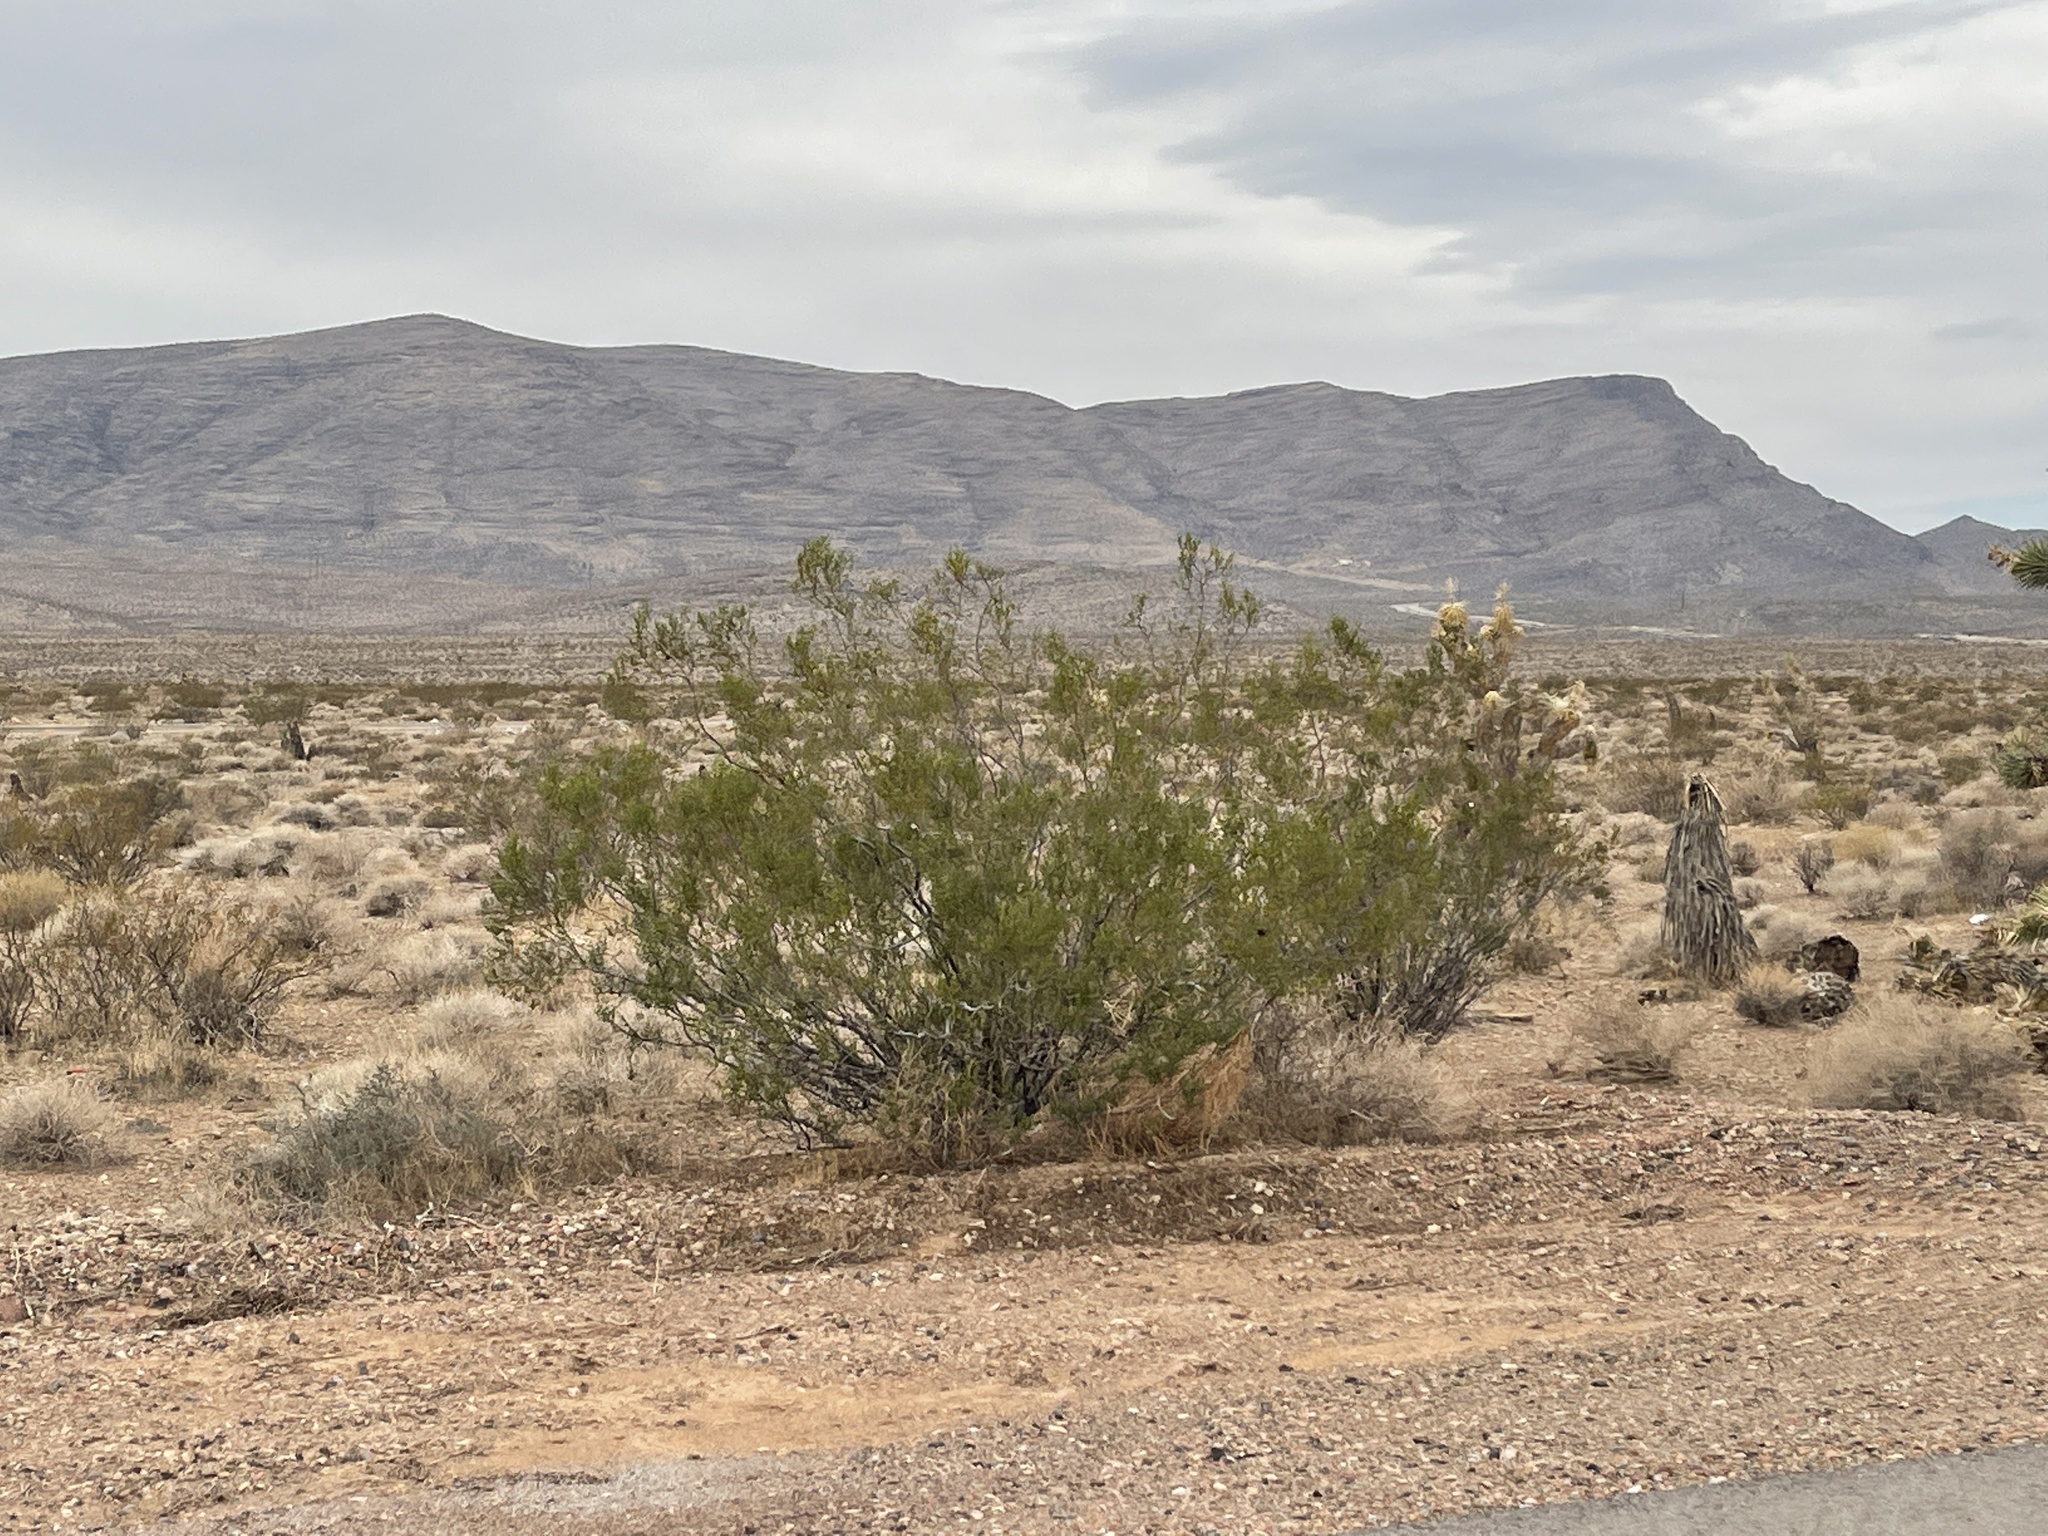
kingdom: Plantae
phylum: Tracheophyta
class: Magnoliopsida
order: Zygophyllales
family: Zygophyllaceae
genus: Larrea
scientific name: Larrea tridentata
